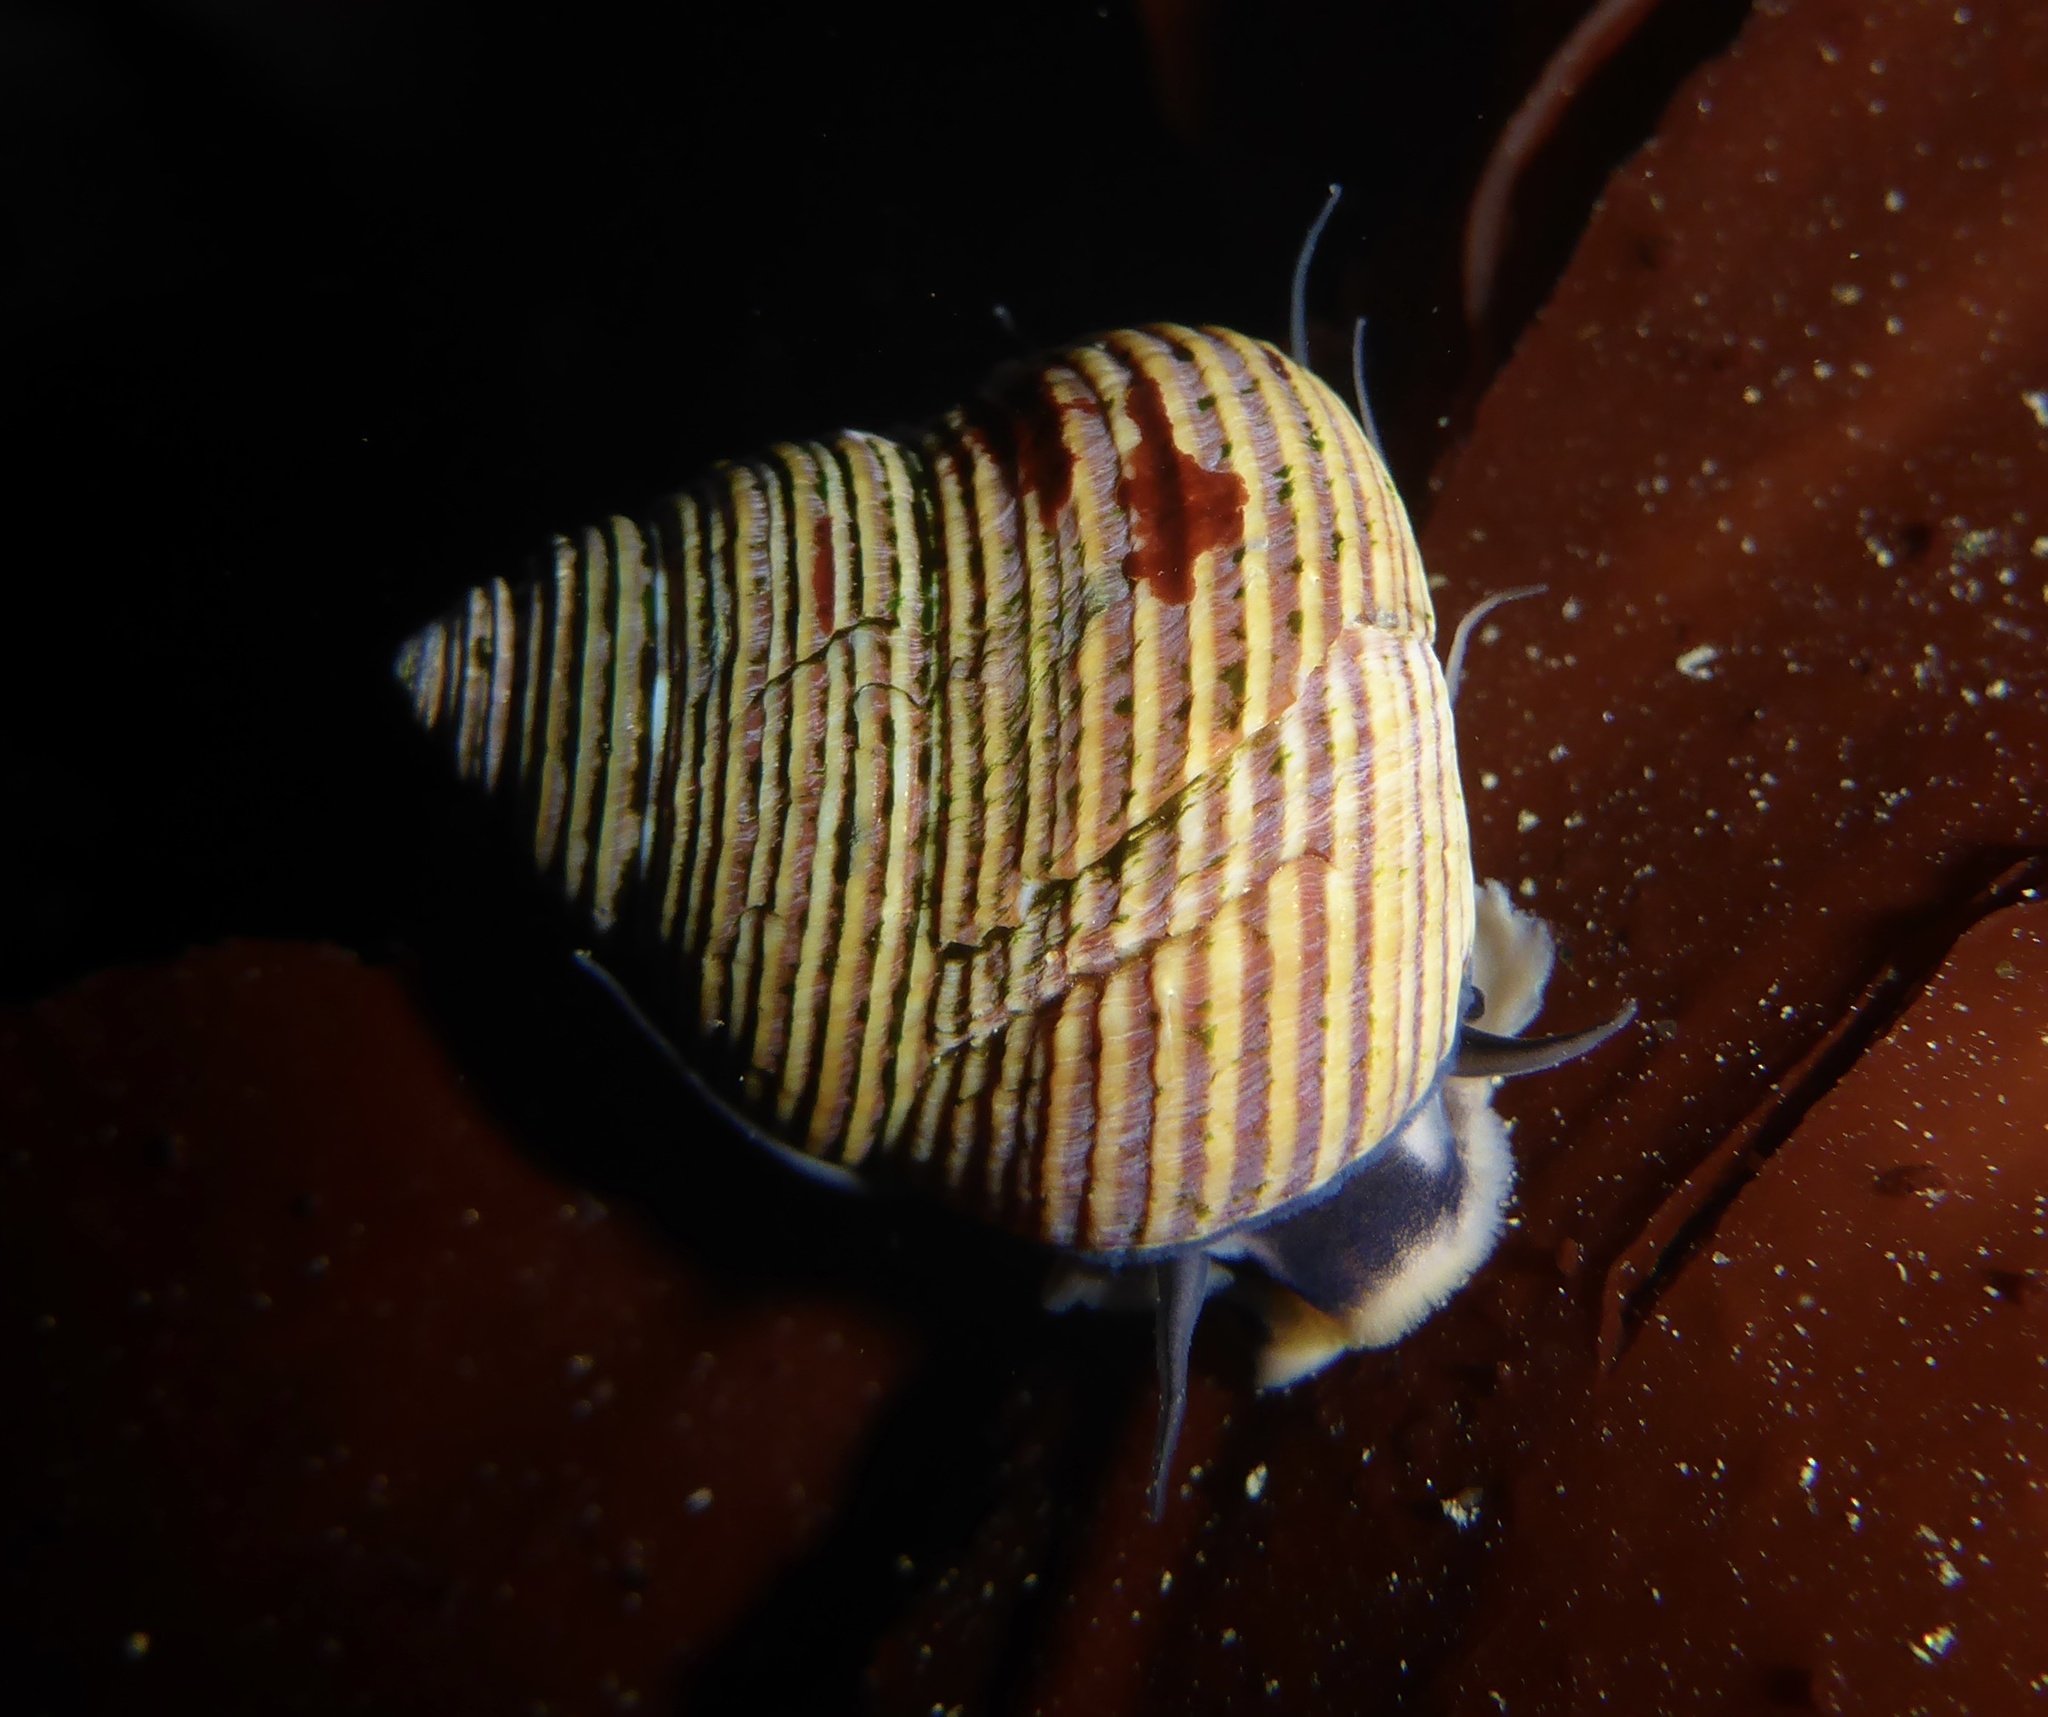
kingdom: Animalia
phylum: Mollusca
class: Gastropoda
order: Trochida
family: Calliostomatidae
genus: Calliostoma
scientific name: Calliostoma ligatum
